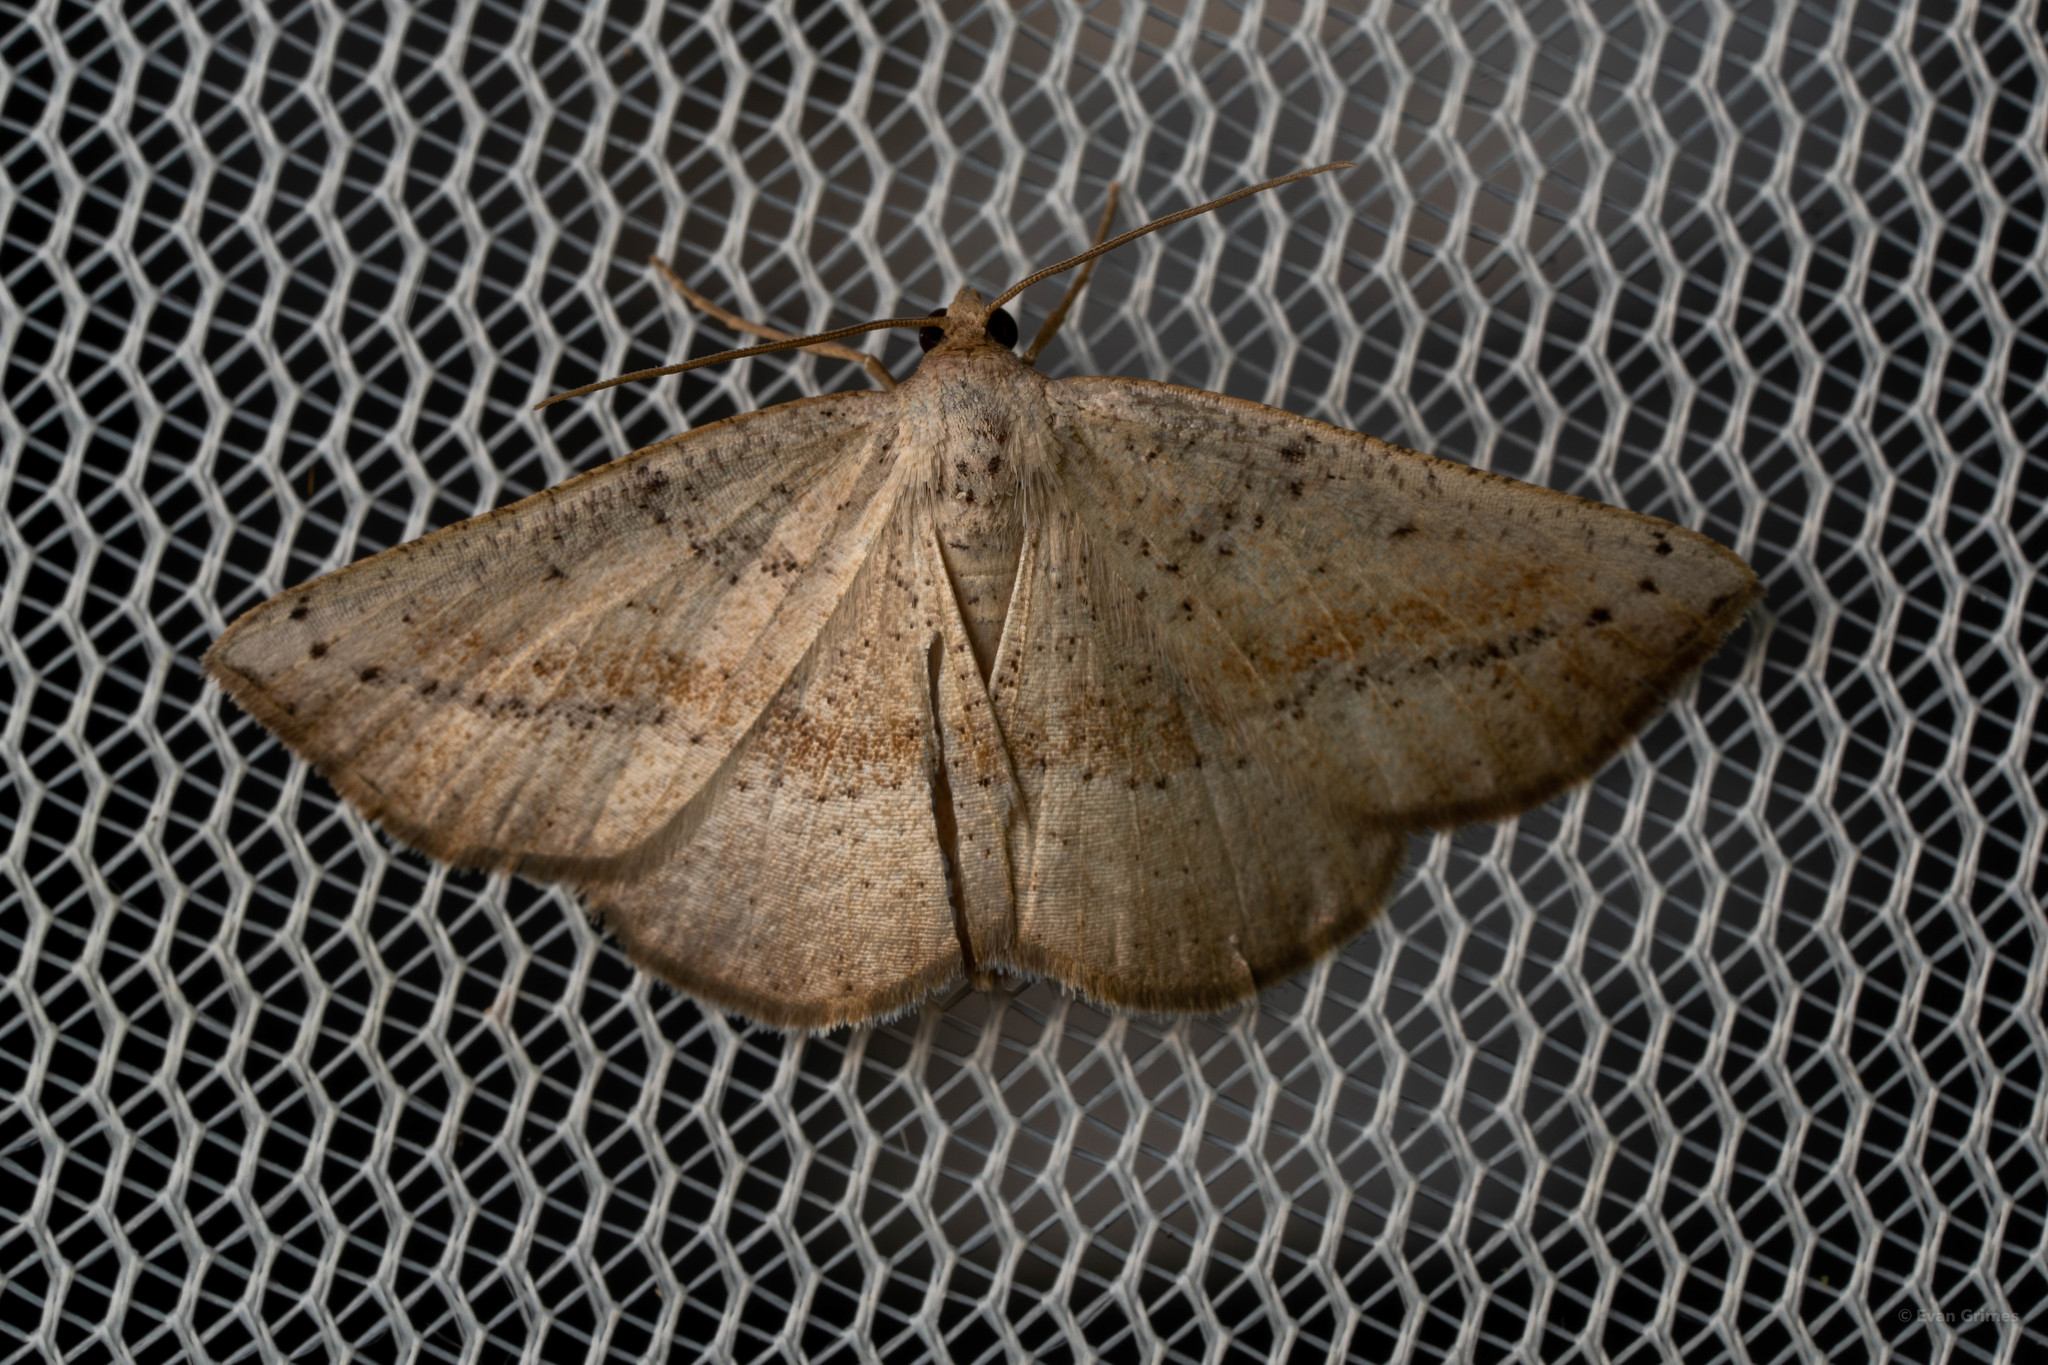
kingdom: Animalia
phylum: Arthropoda
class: Insecta
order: Lepidoptera
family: Geometridae
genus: Tacparia
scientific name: Tacparia atropunctata
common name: Northern pale alder
